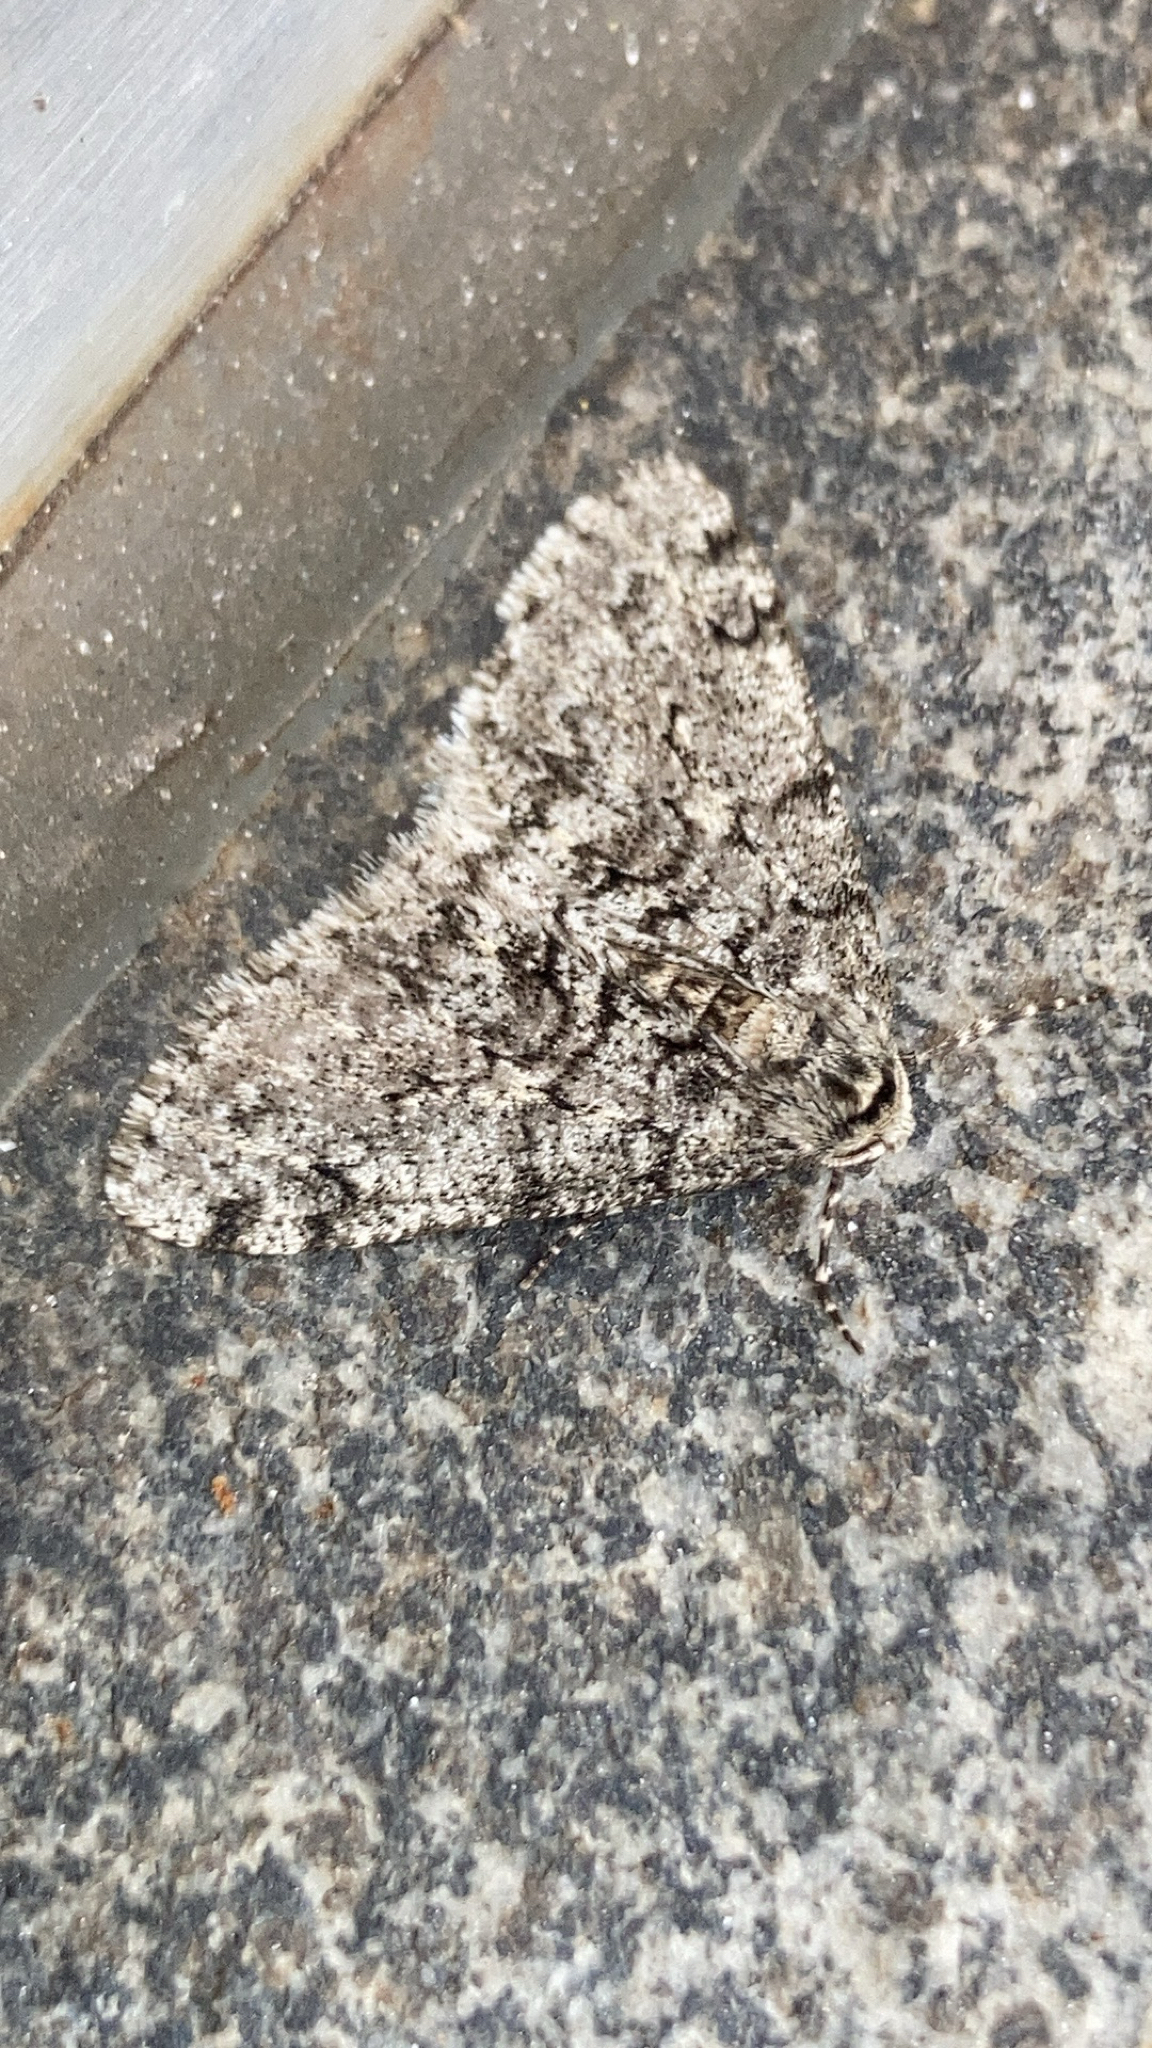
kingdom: Animalia
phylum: Arthropoda
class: Insecta
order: Lepidoptera
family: Geometridae
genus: Phigalia
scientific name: Phigalia denticulata
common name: Toothed phigalia
